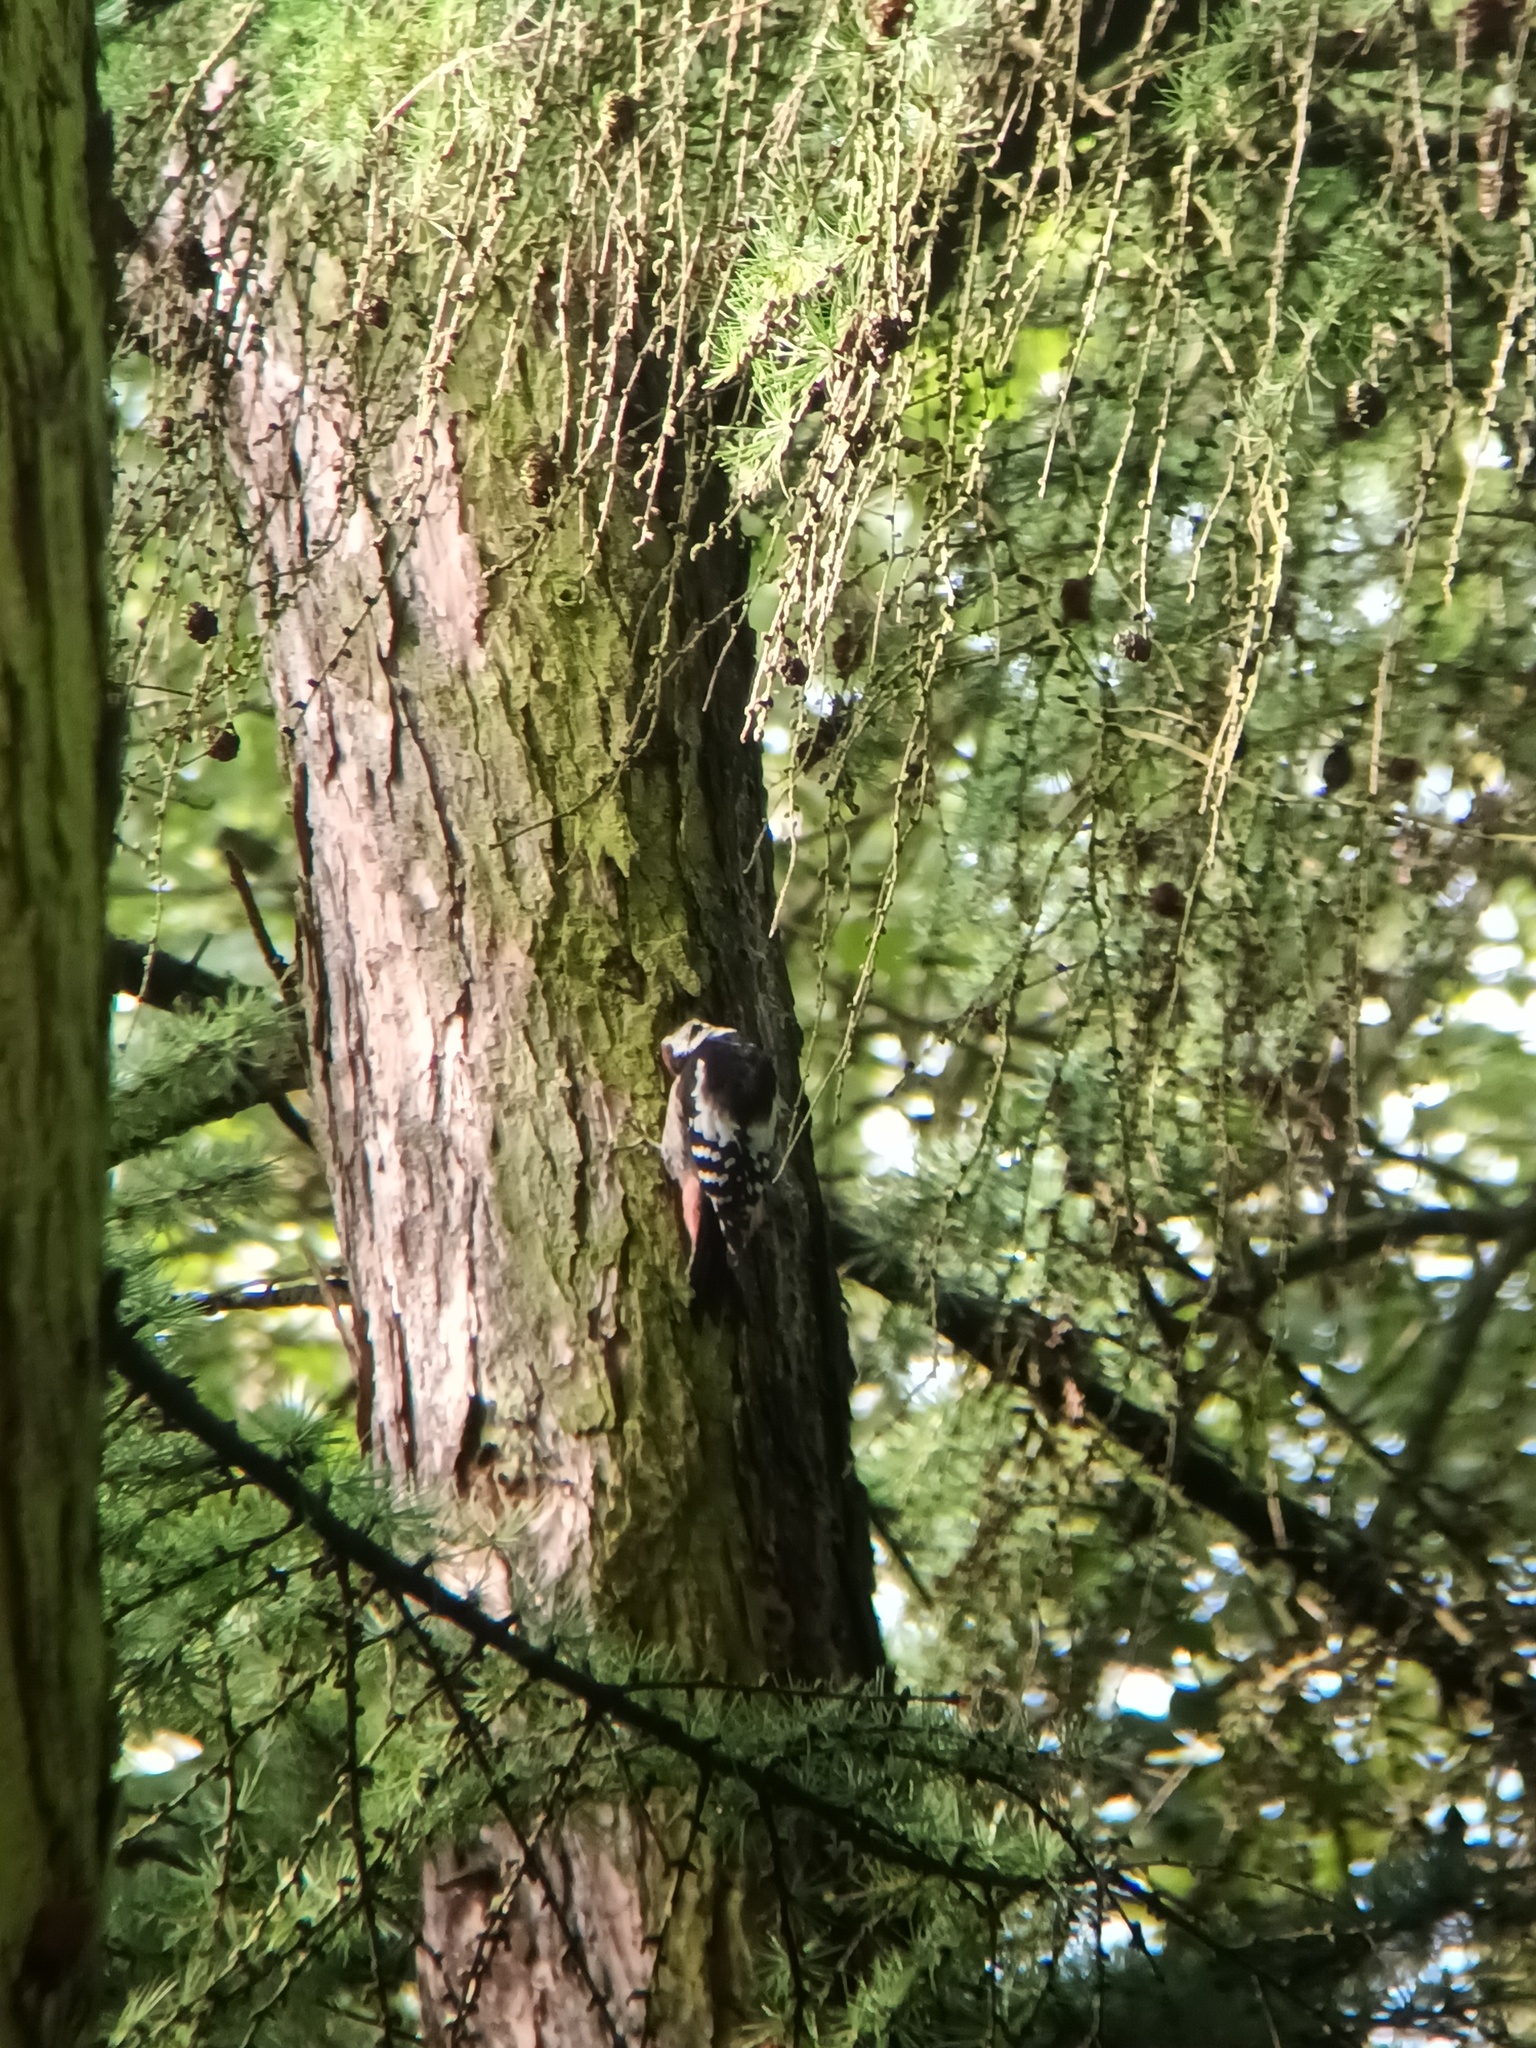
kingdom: Animalia
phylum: Chordata
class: Aves
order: Piciformes
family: Picidae
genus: Dendrocopos
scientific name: Dendrocopos major
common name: Great spotted woodpecker
